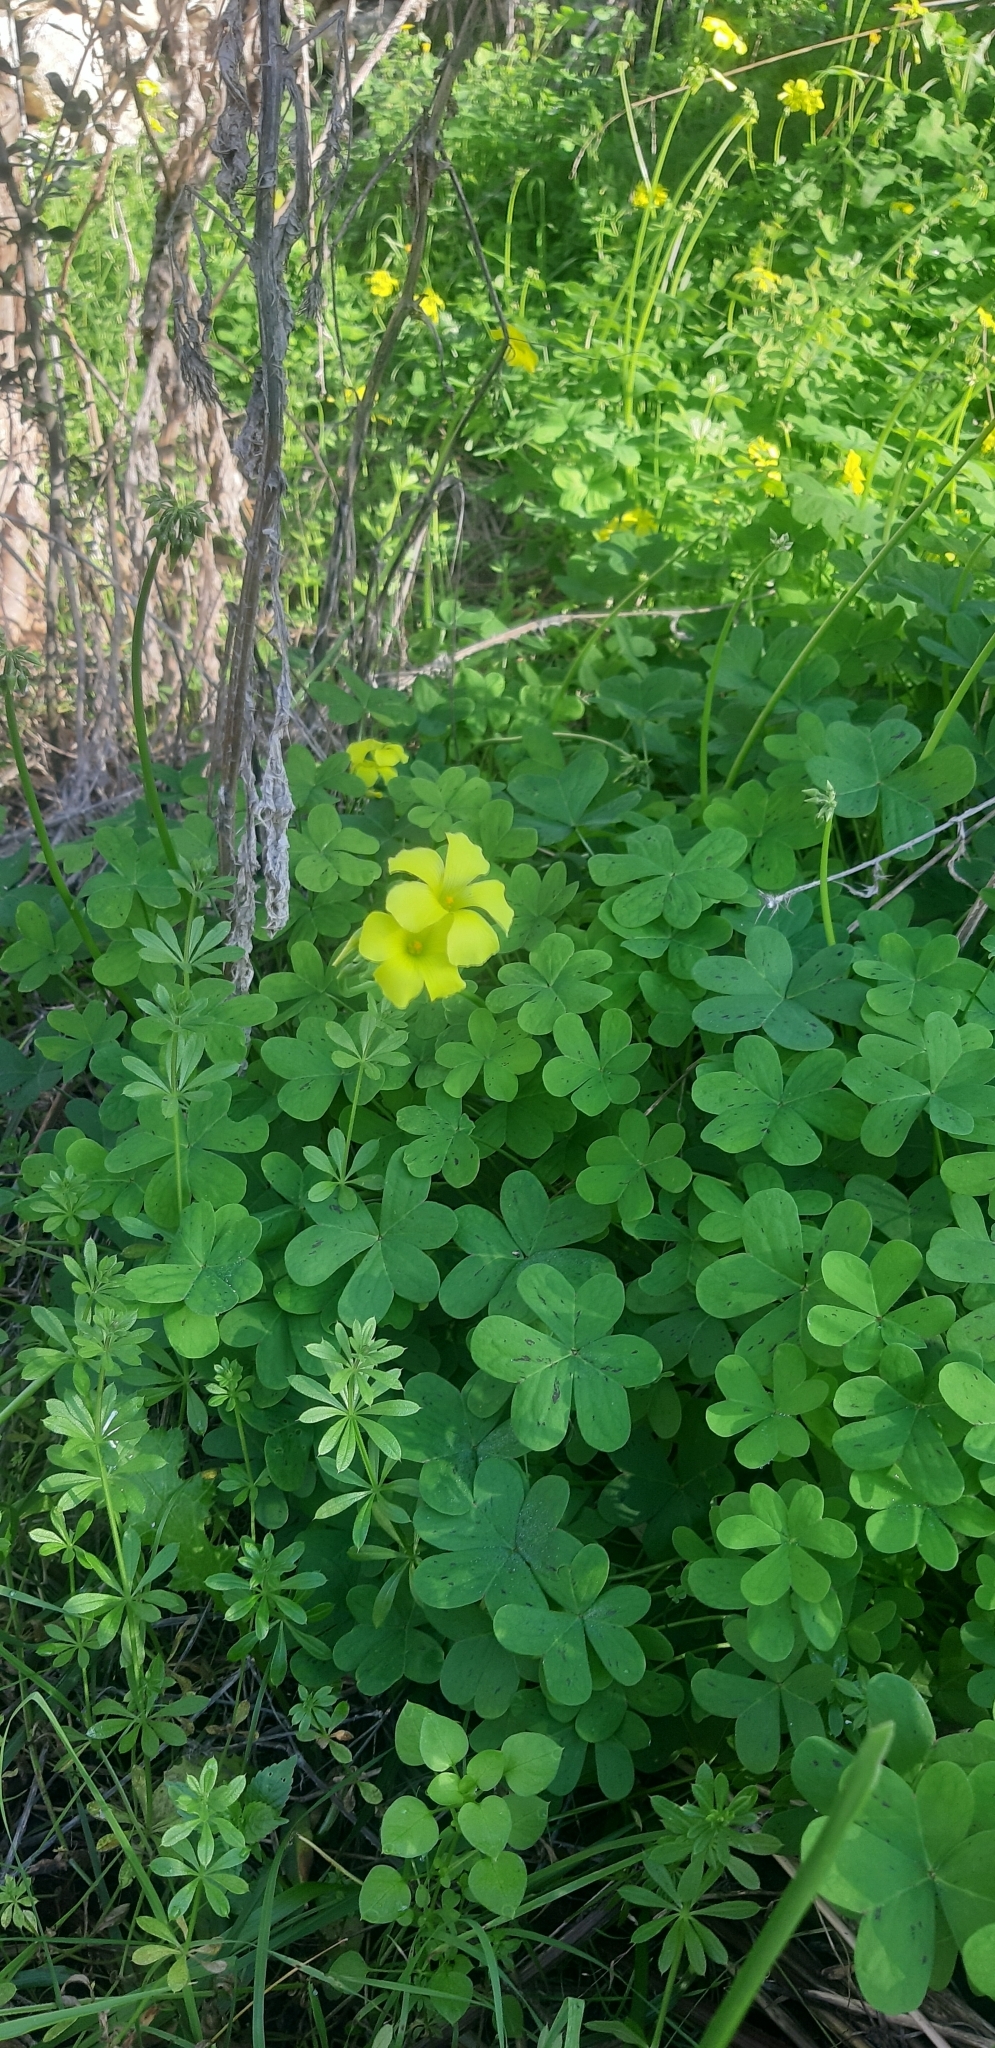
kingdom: Plantae
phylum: Tracheophyta
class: Magnoliopsida
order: Oxalidales
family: Oxalidaceae
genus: Oxalis
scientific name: Oxalis pes-caprae
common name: Bermuda-buttercup
